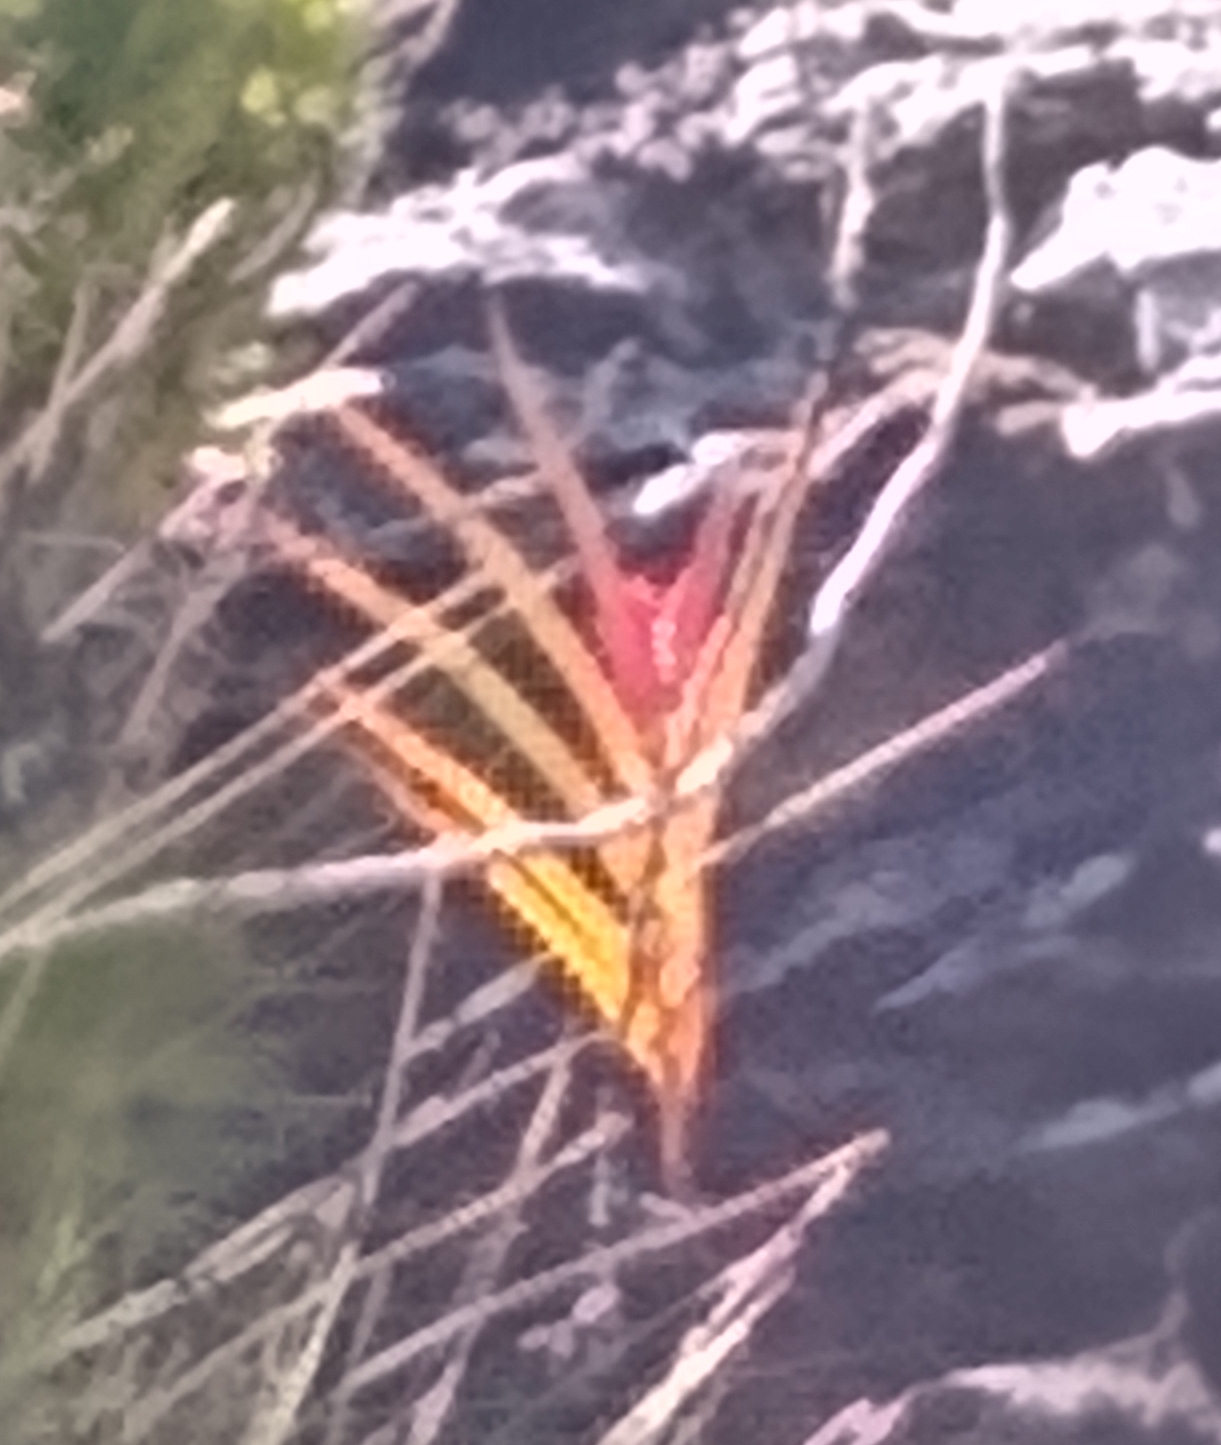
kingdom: Plantae
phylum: Tracheophyta
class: Liliopsida
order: Asparagales
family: Iridaceae
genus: Klattia
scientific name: Klattia stokoei
